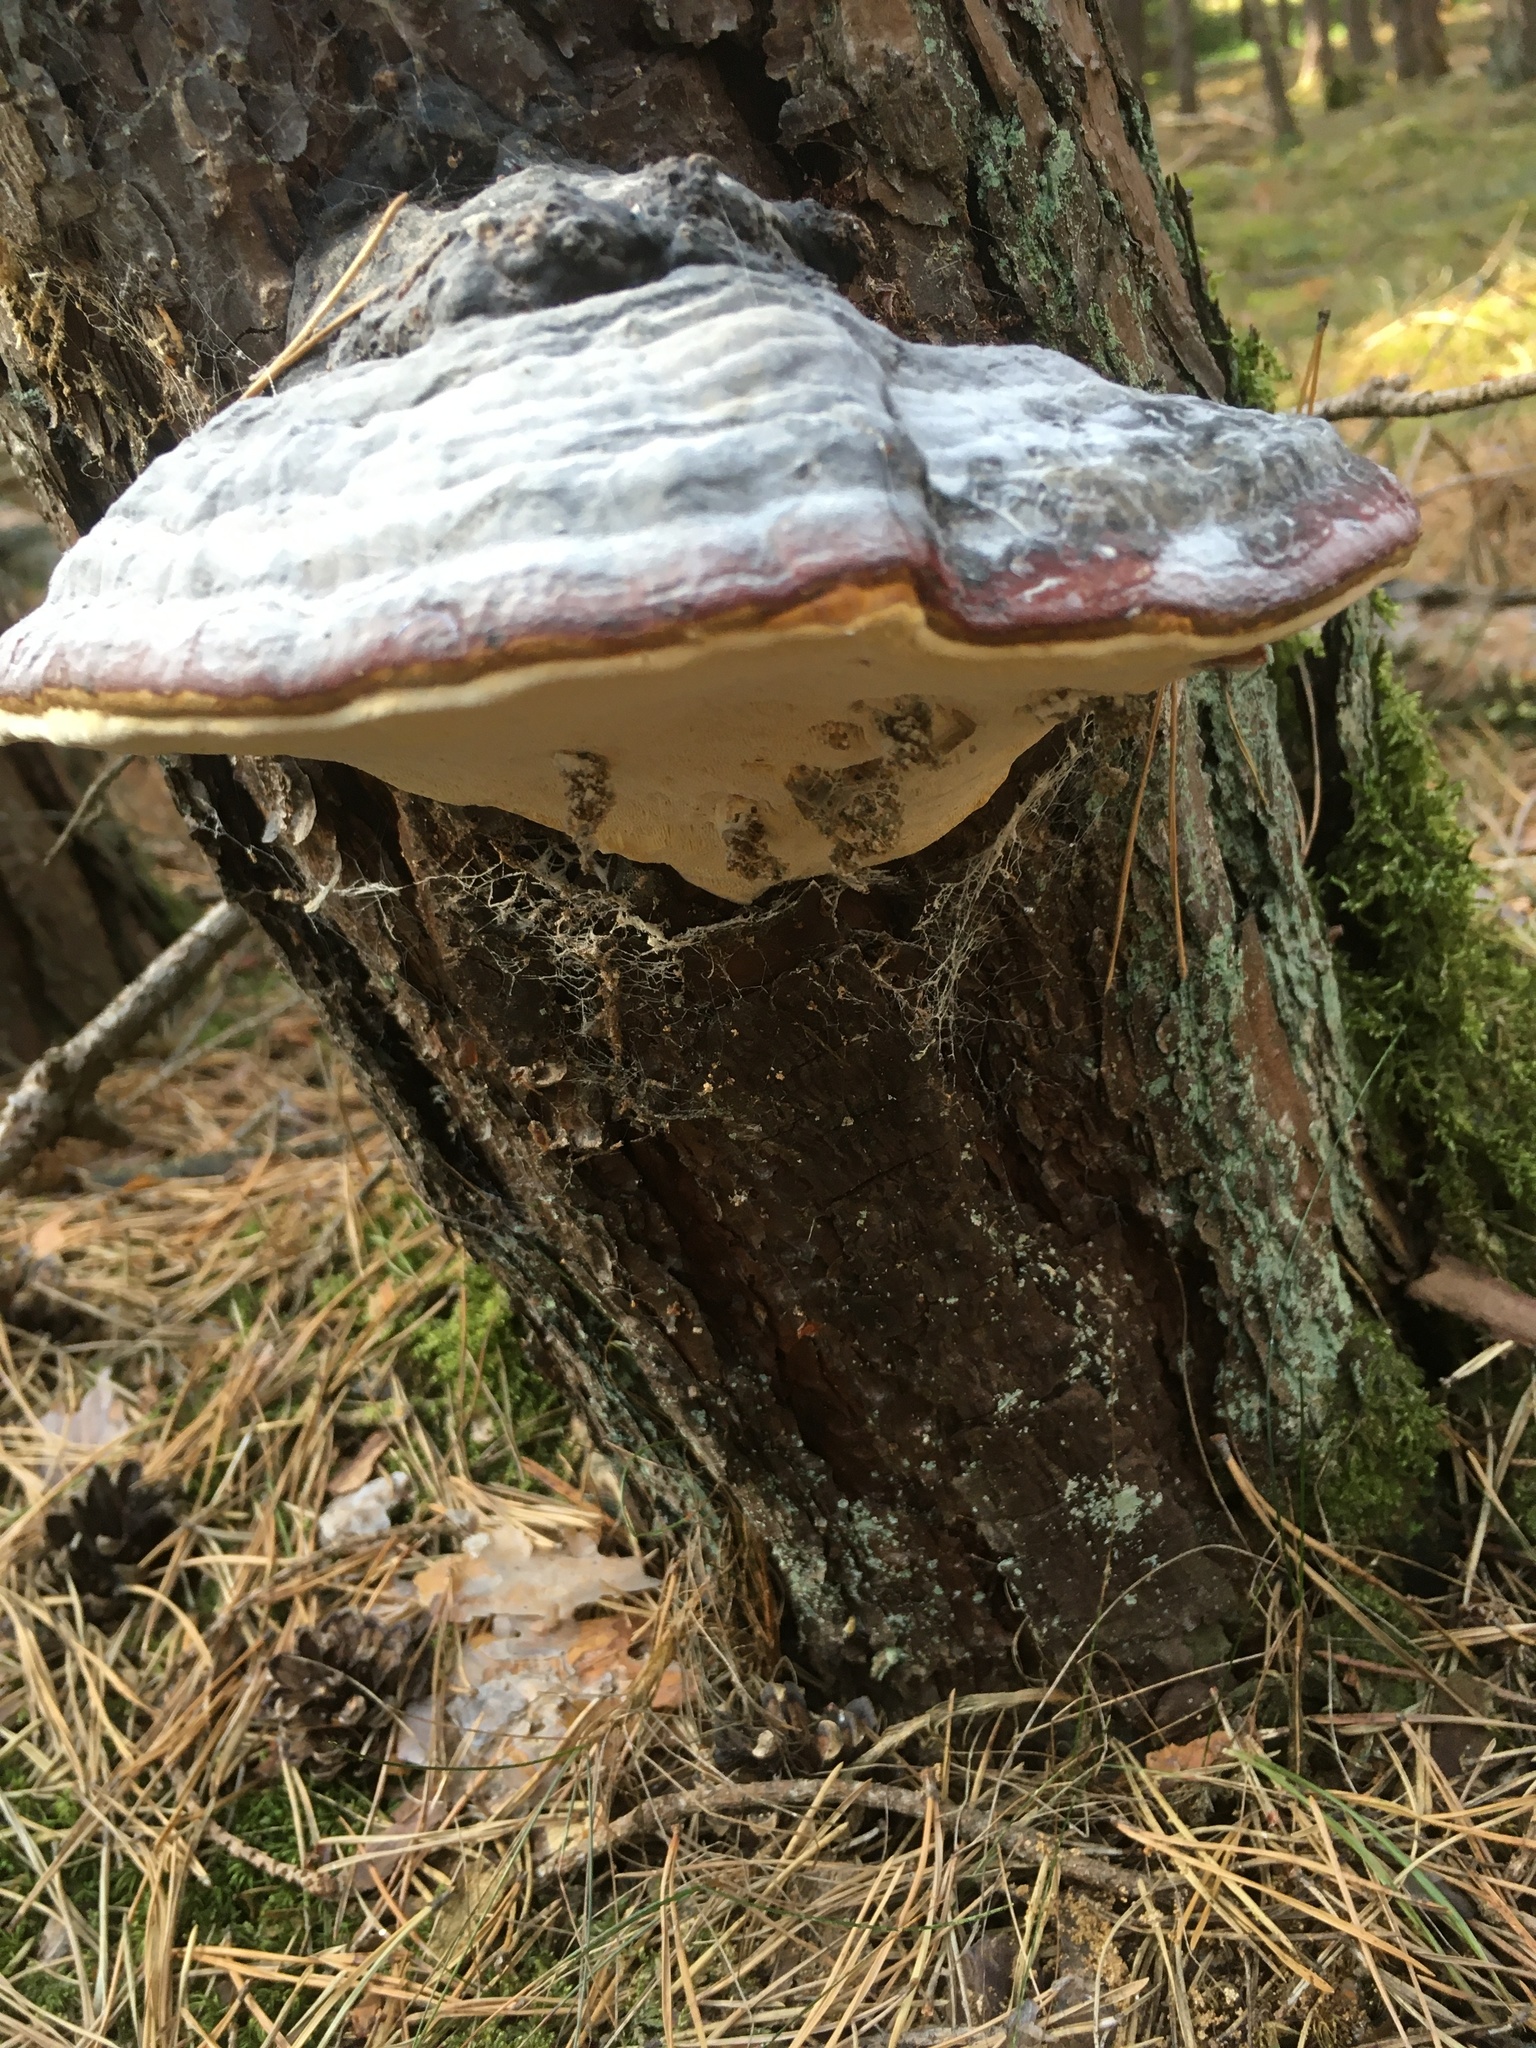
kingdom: Fungi
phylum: Basidiomycota
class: Agaricomycetes
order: Polyporales
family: Fomitopsidaceae
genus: Fomitopsis
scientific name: Fomitopsis pinicola
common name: Red-belted bracket
